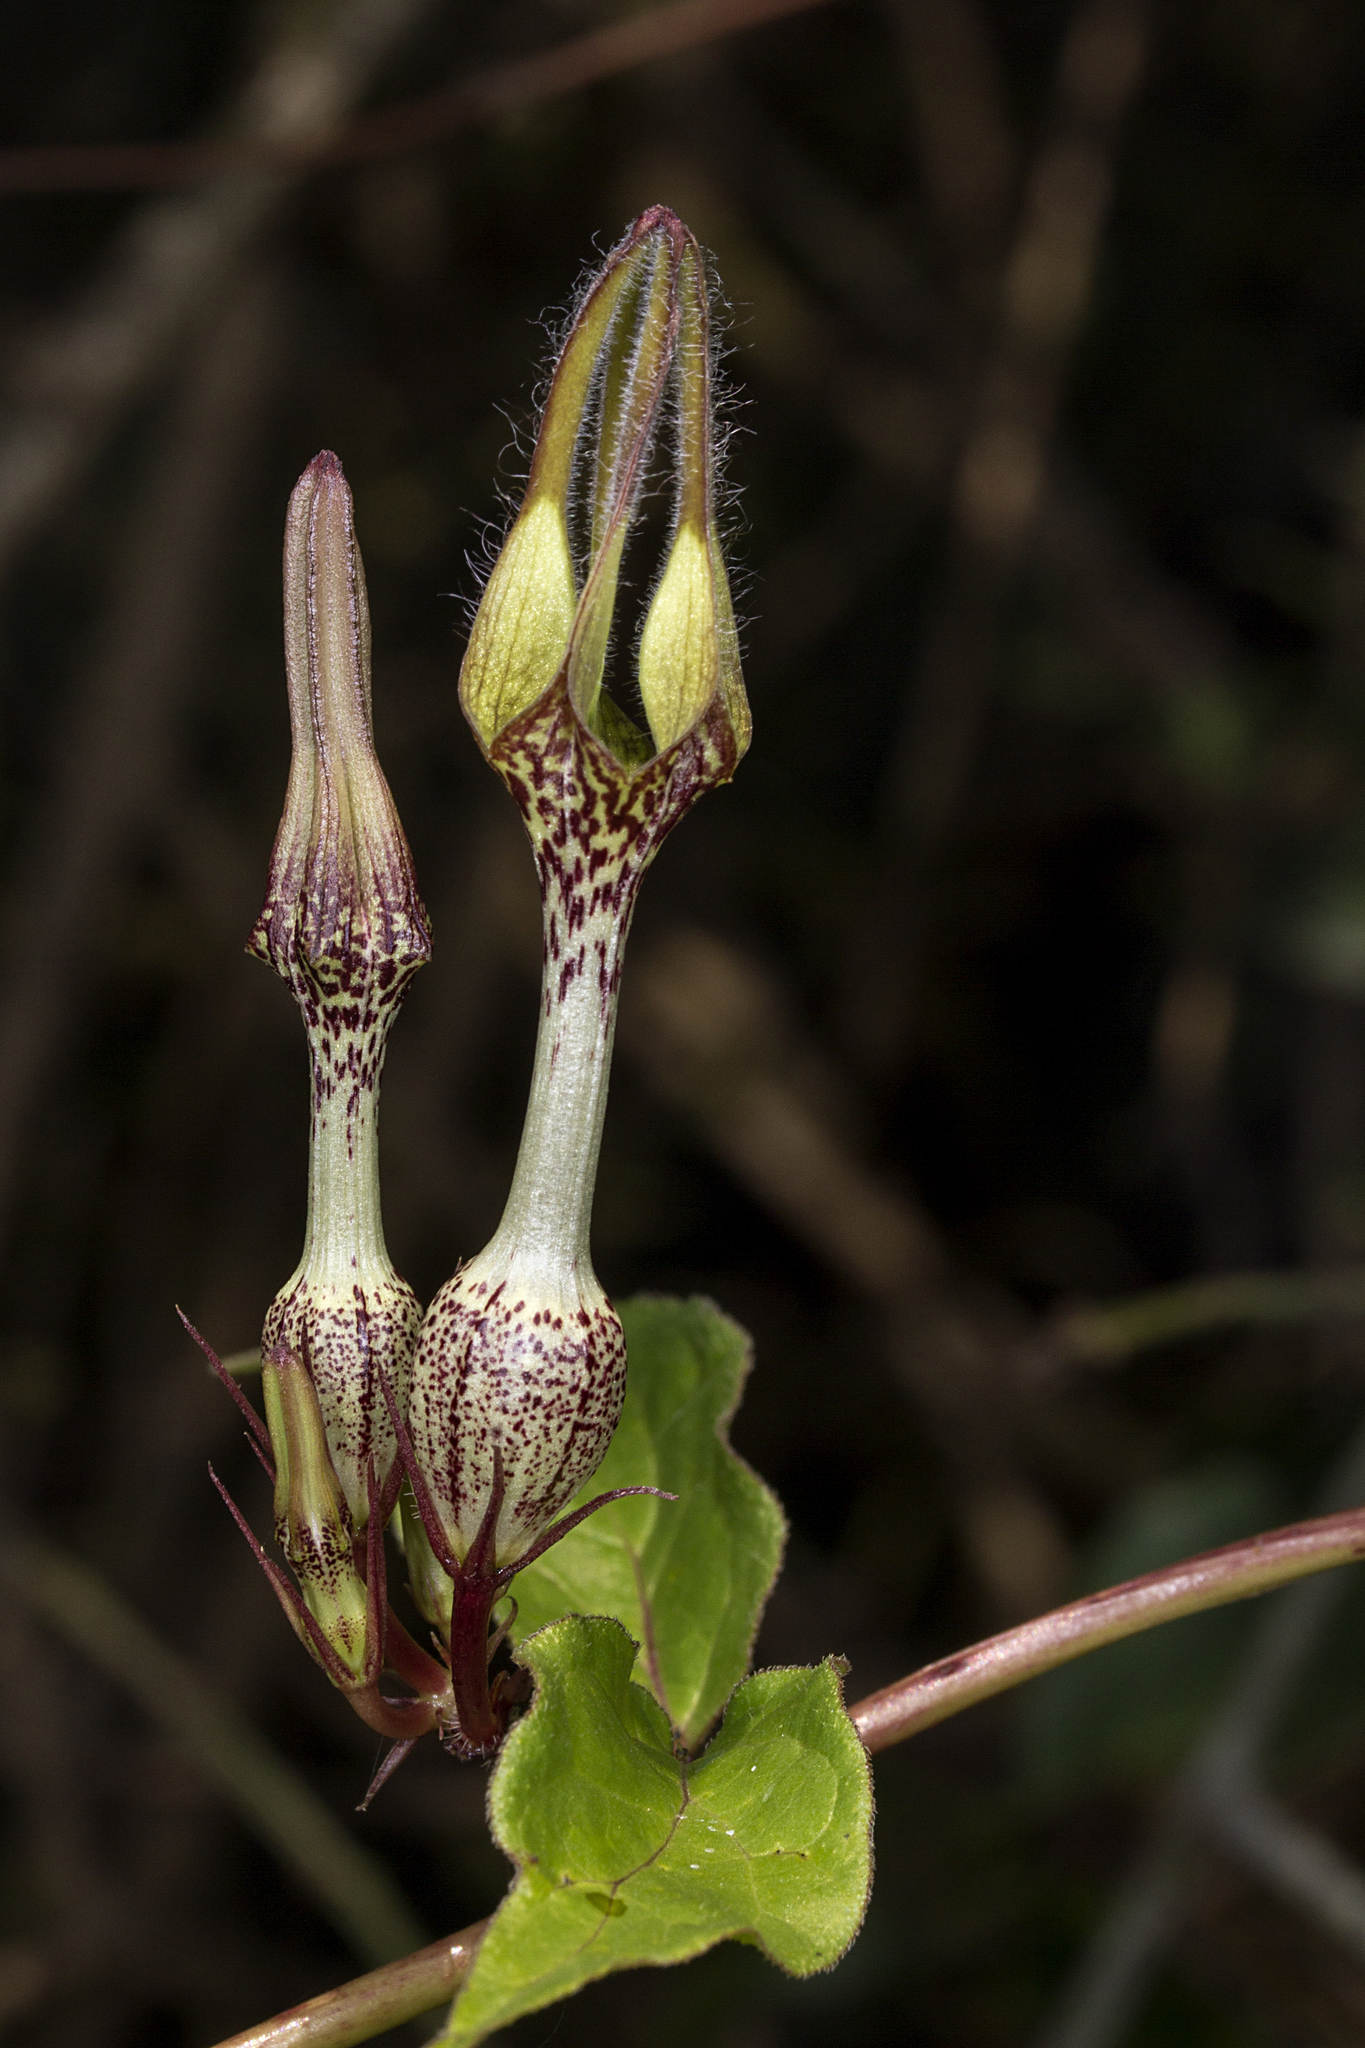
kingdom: Plantae
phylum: Tracheophyta
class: Magnoliopsida
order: Gentianales
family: Apocynaceae
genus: Ceropegia
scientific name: Ceropegia vincifolia
